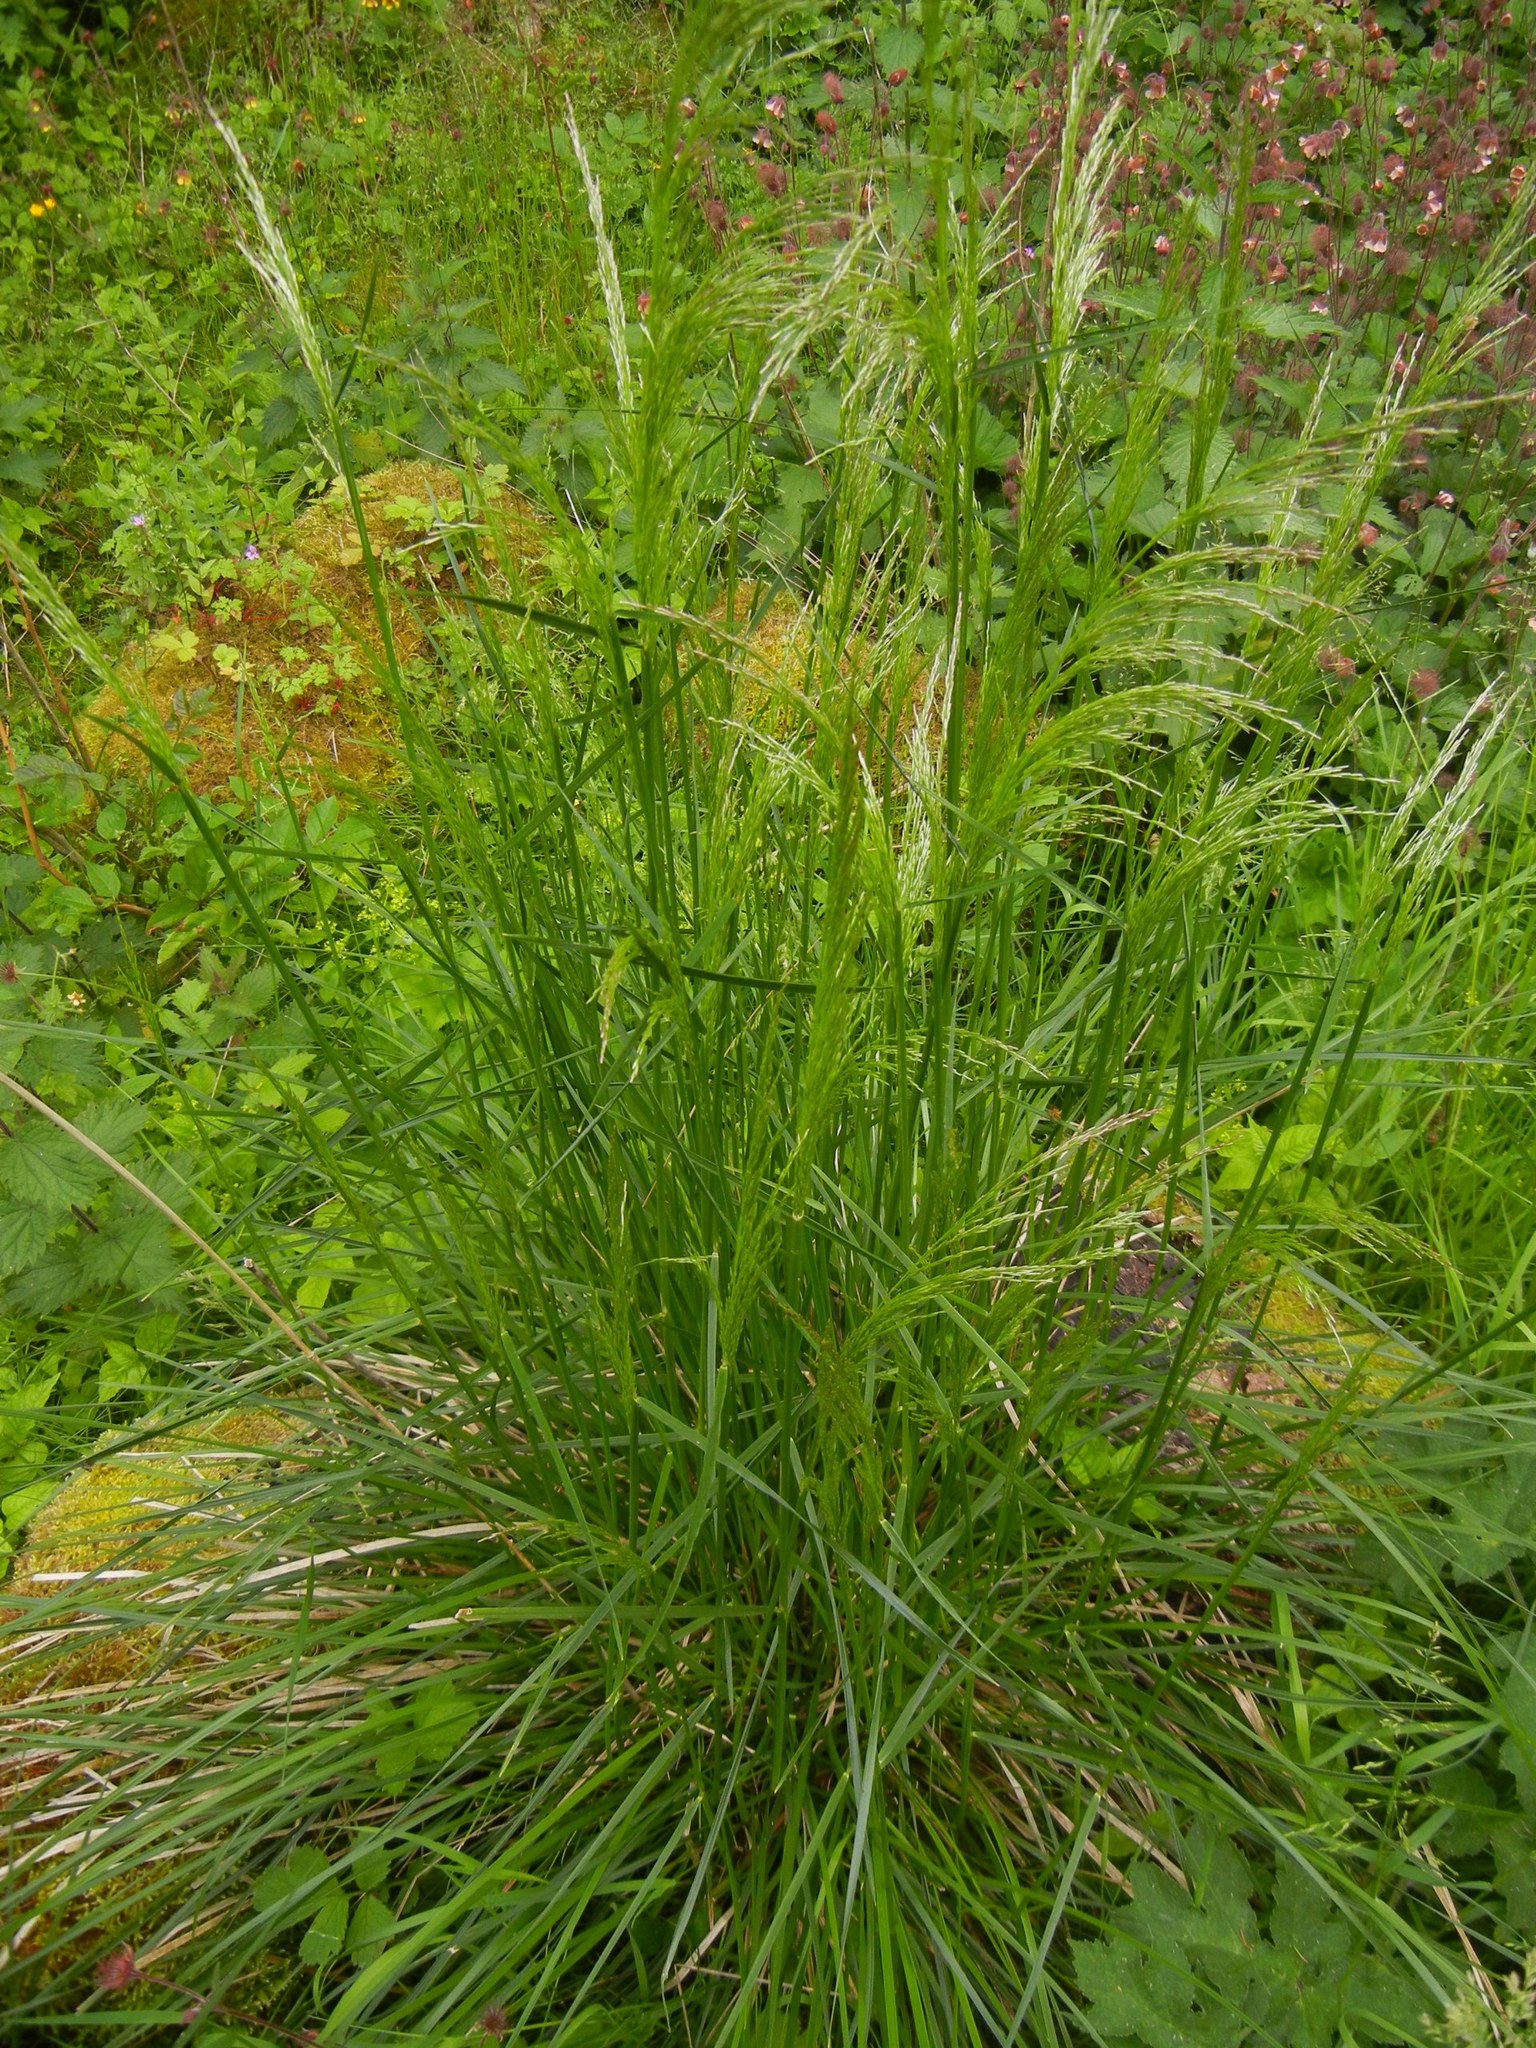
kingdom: Plantae
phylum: Tracheophyta
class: Liliopsida
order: Poales
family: Poaceae
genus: Deschampsia
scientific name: Deschampsia cespitosa
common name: Tufted hair-grass
